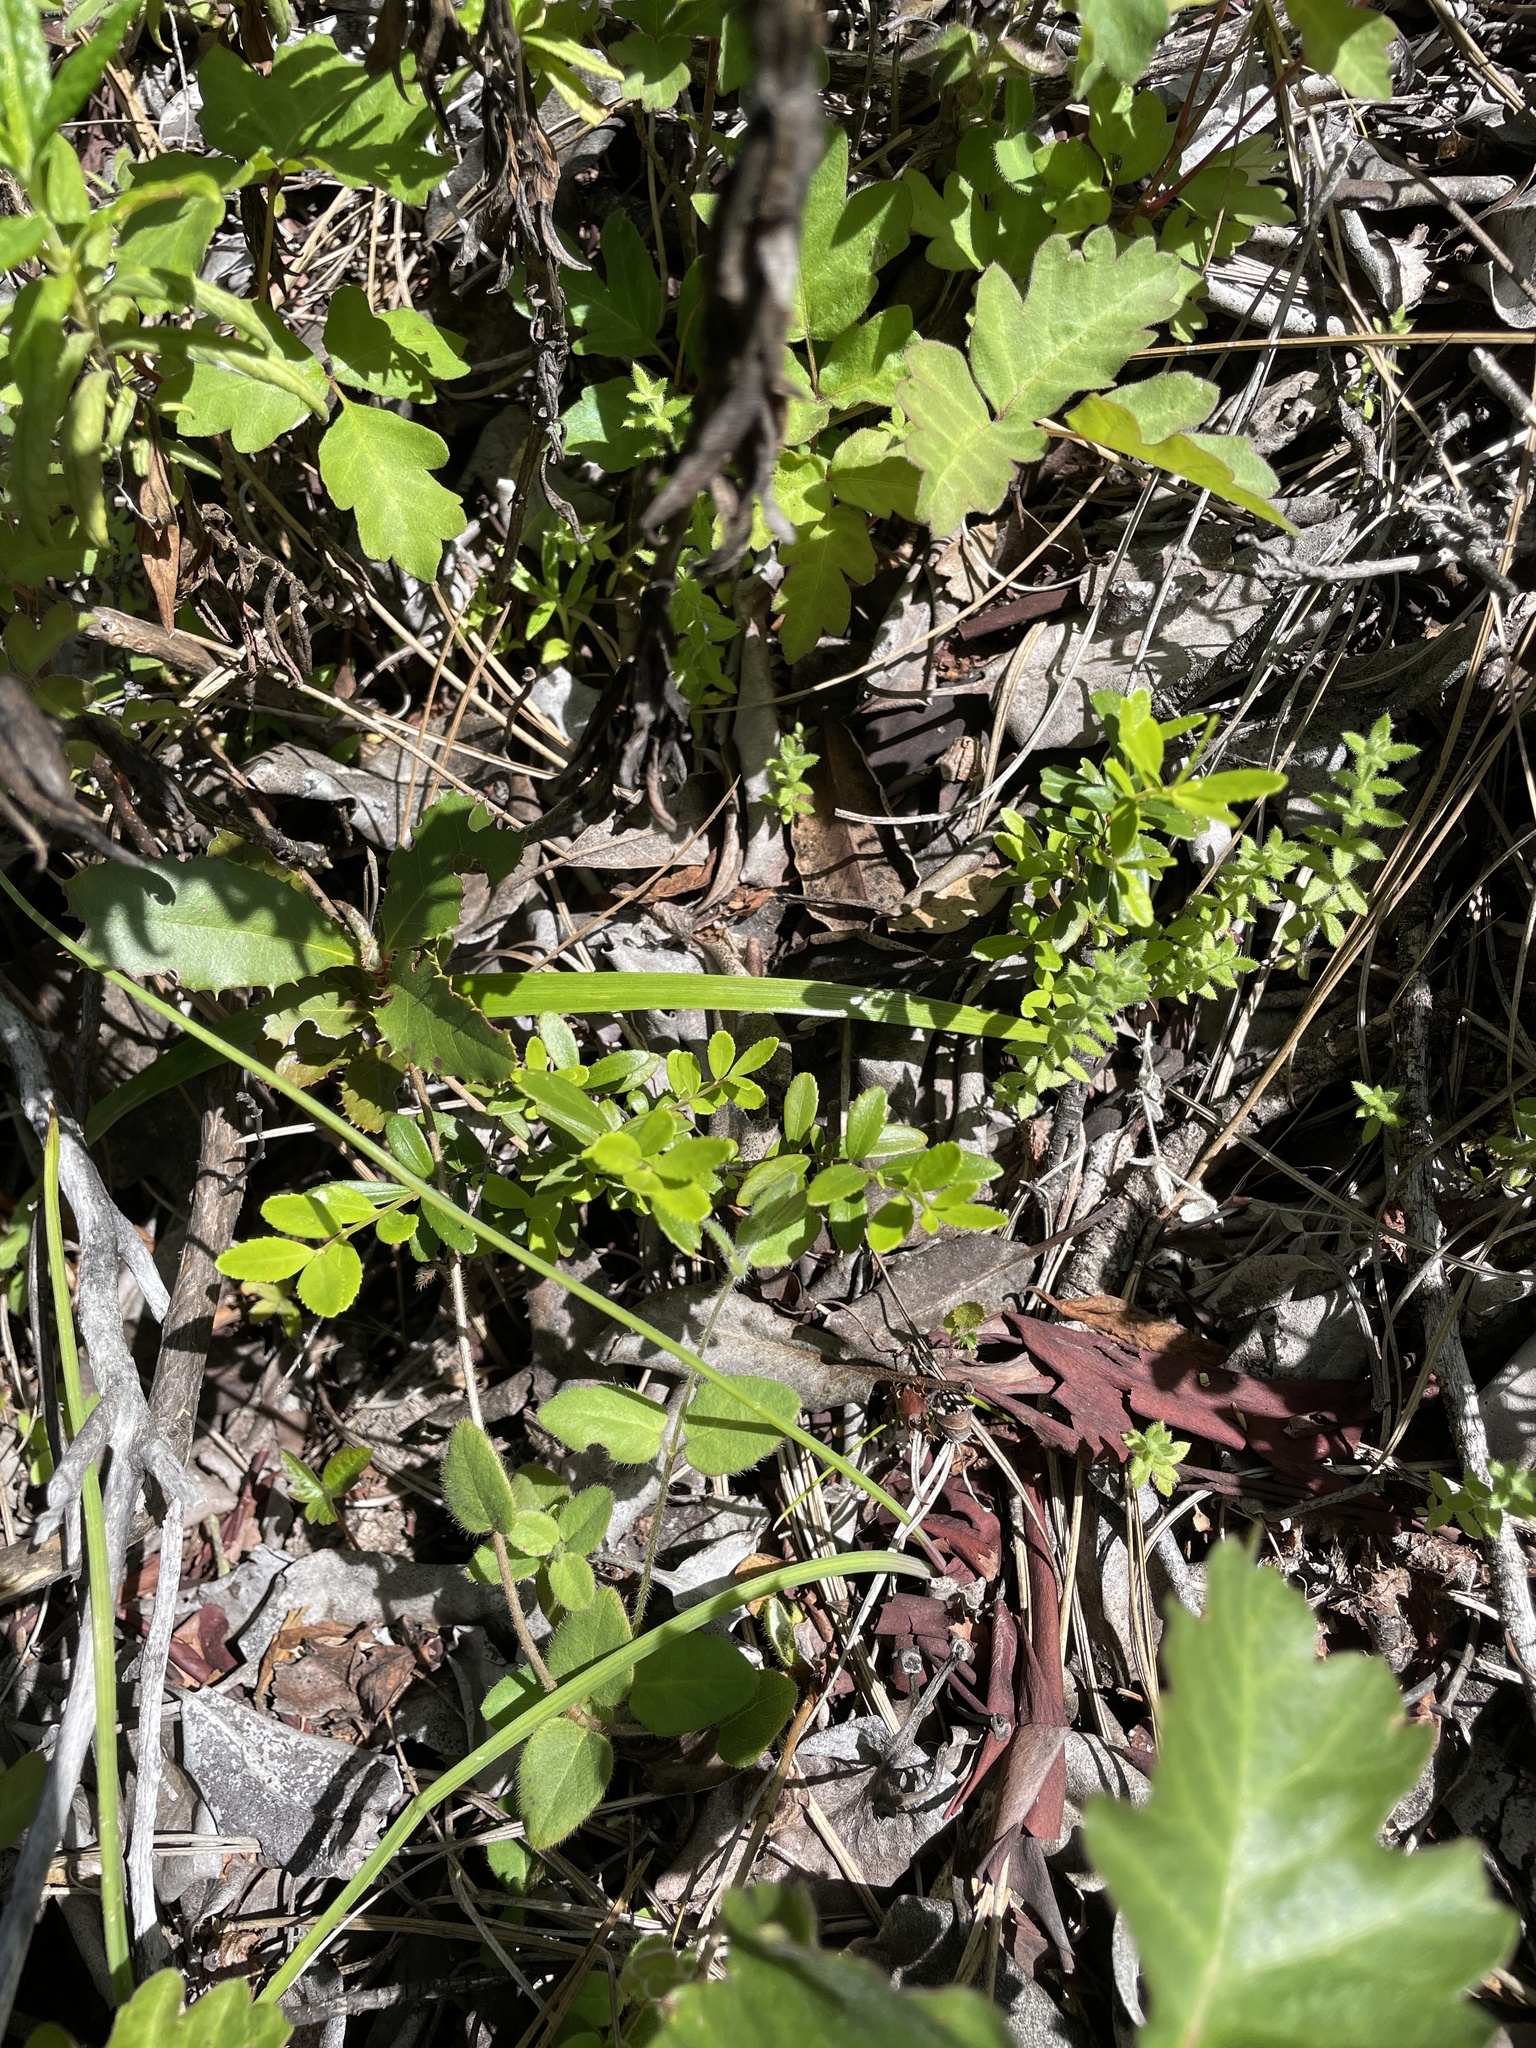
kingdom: Plantae
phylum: Tracheophyta
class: Magnoliopsida
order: Celastrales
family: Celastraceae
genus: Paxistima
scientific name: Paxistima myrsinites
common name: Mountain-lover
